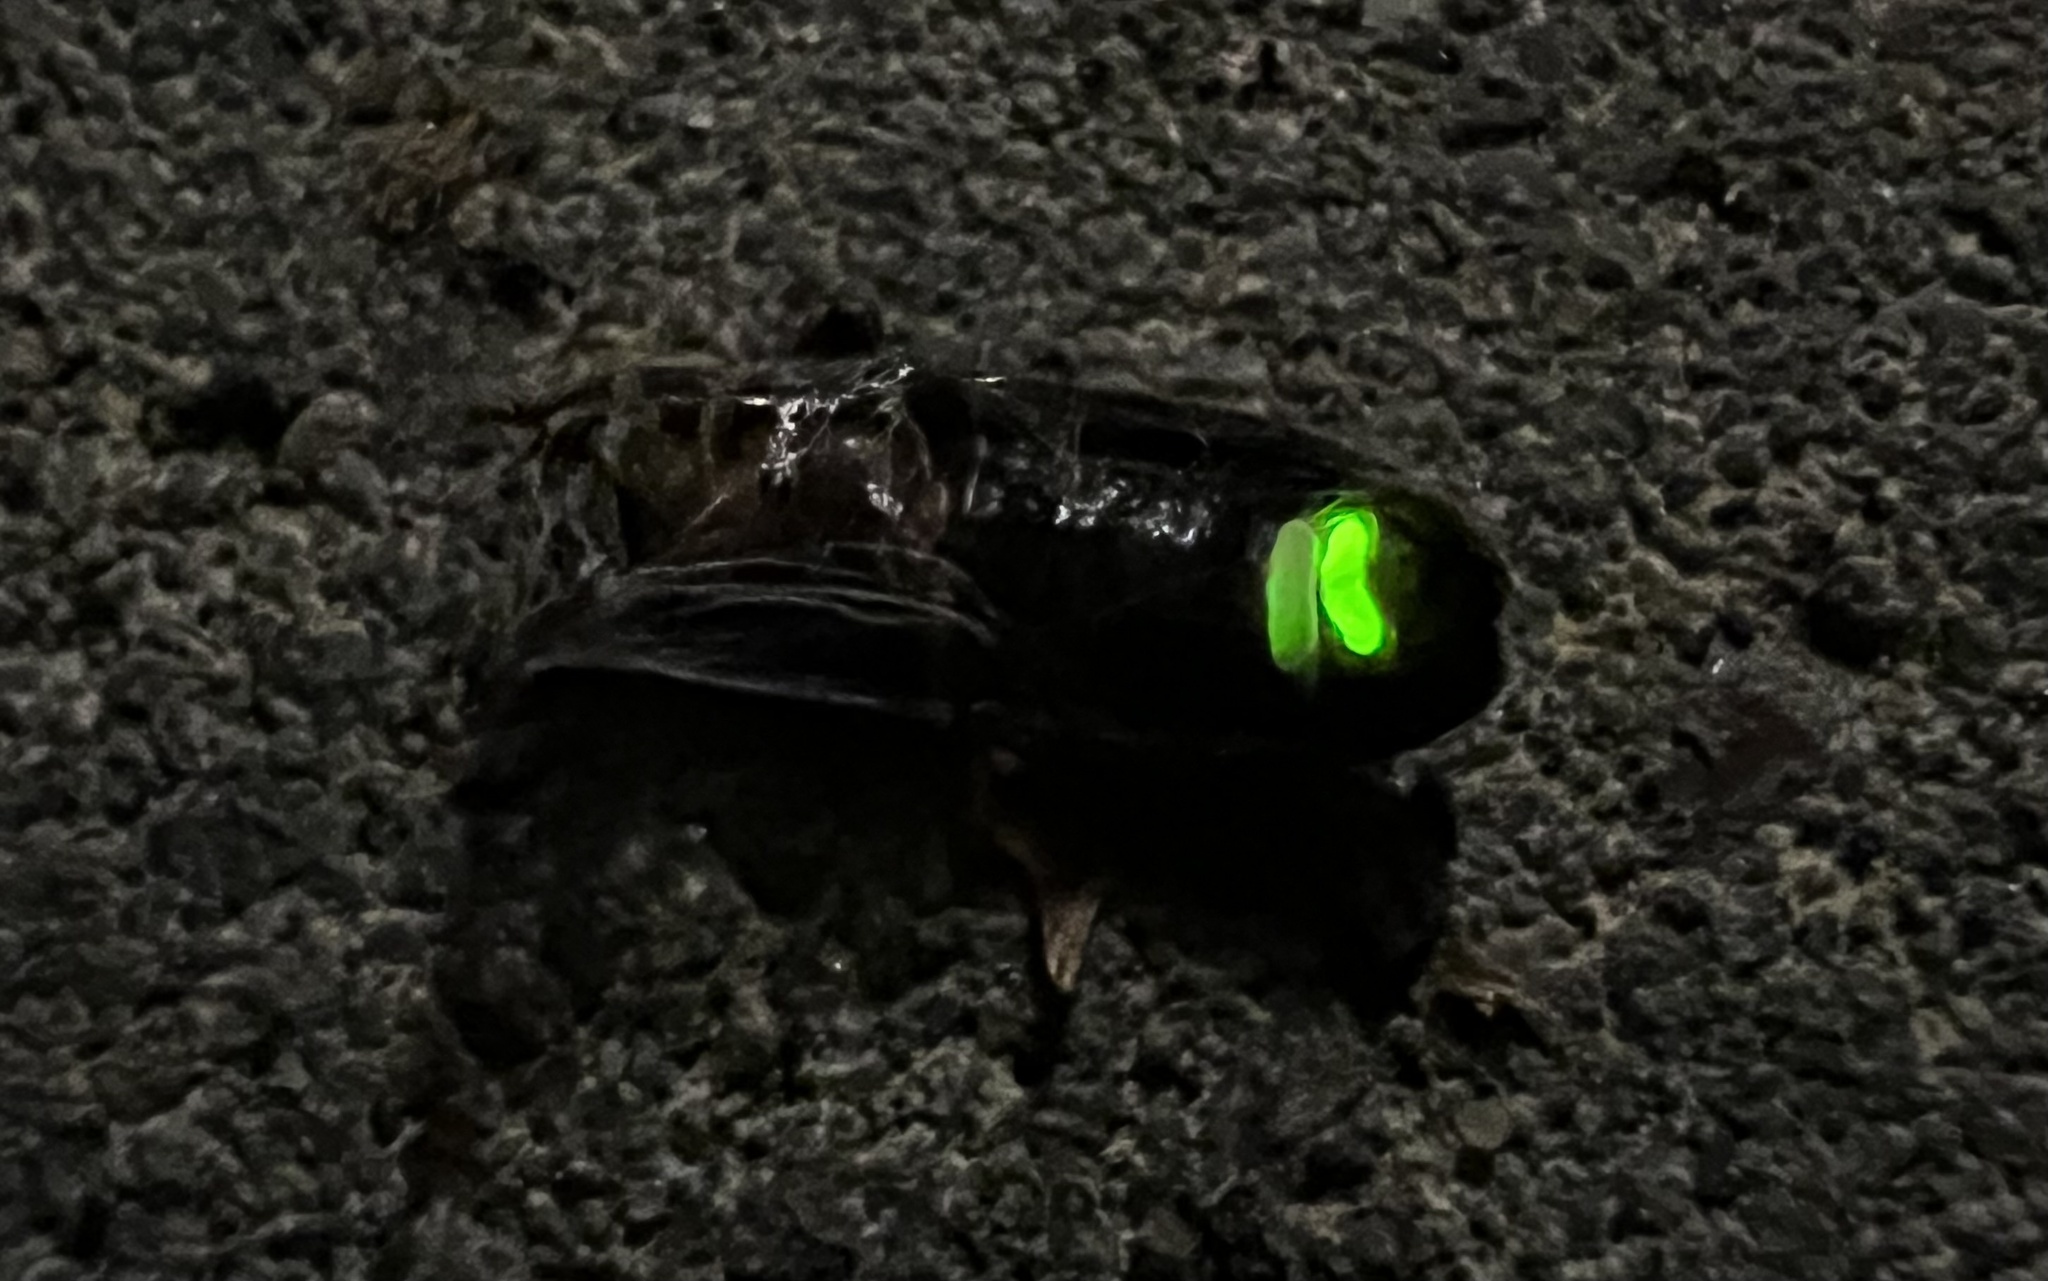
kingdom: Animalia
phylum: Arthropoda
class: Insecta
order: Coleoptera
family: Lampyridae
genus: Lamprohiza
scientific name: Lamprohiza splendidula
